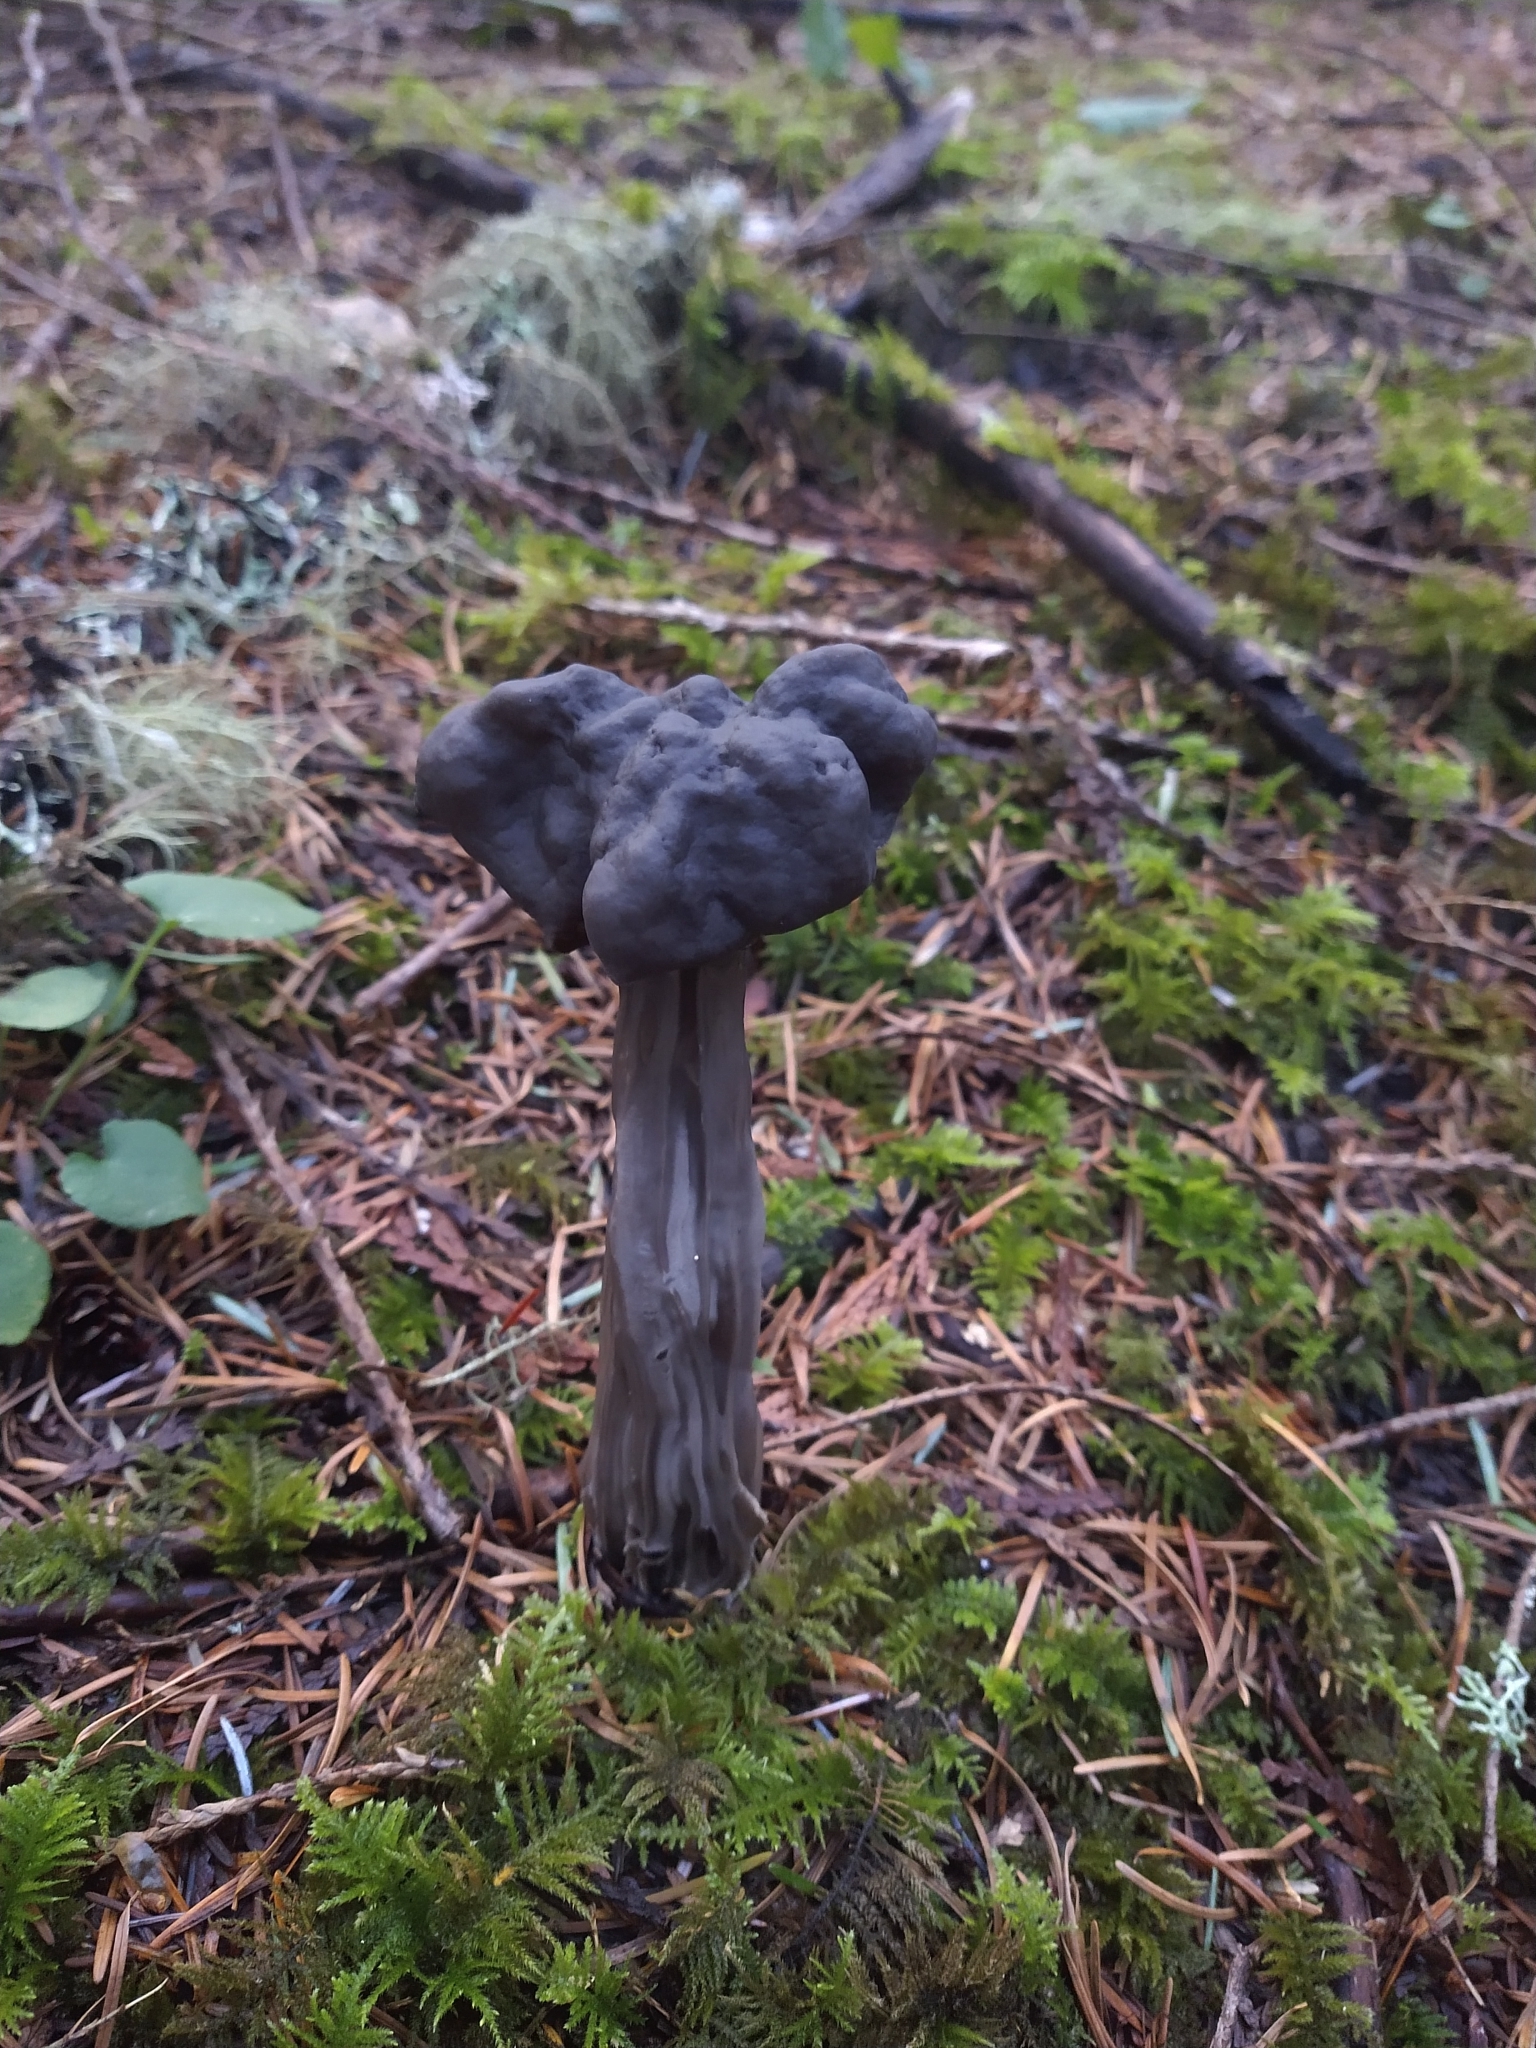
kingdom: Fungi
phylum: Ascomycota
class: Pezizomycetes
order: Pezizales
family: Helvellaceae
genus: Helvella
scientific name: Helvella vespertina
